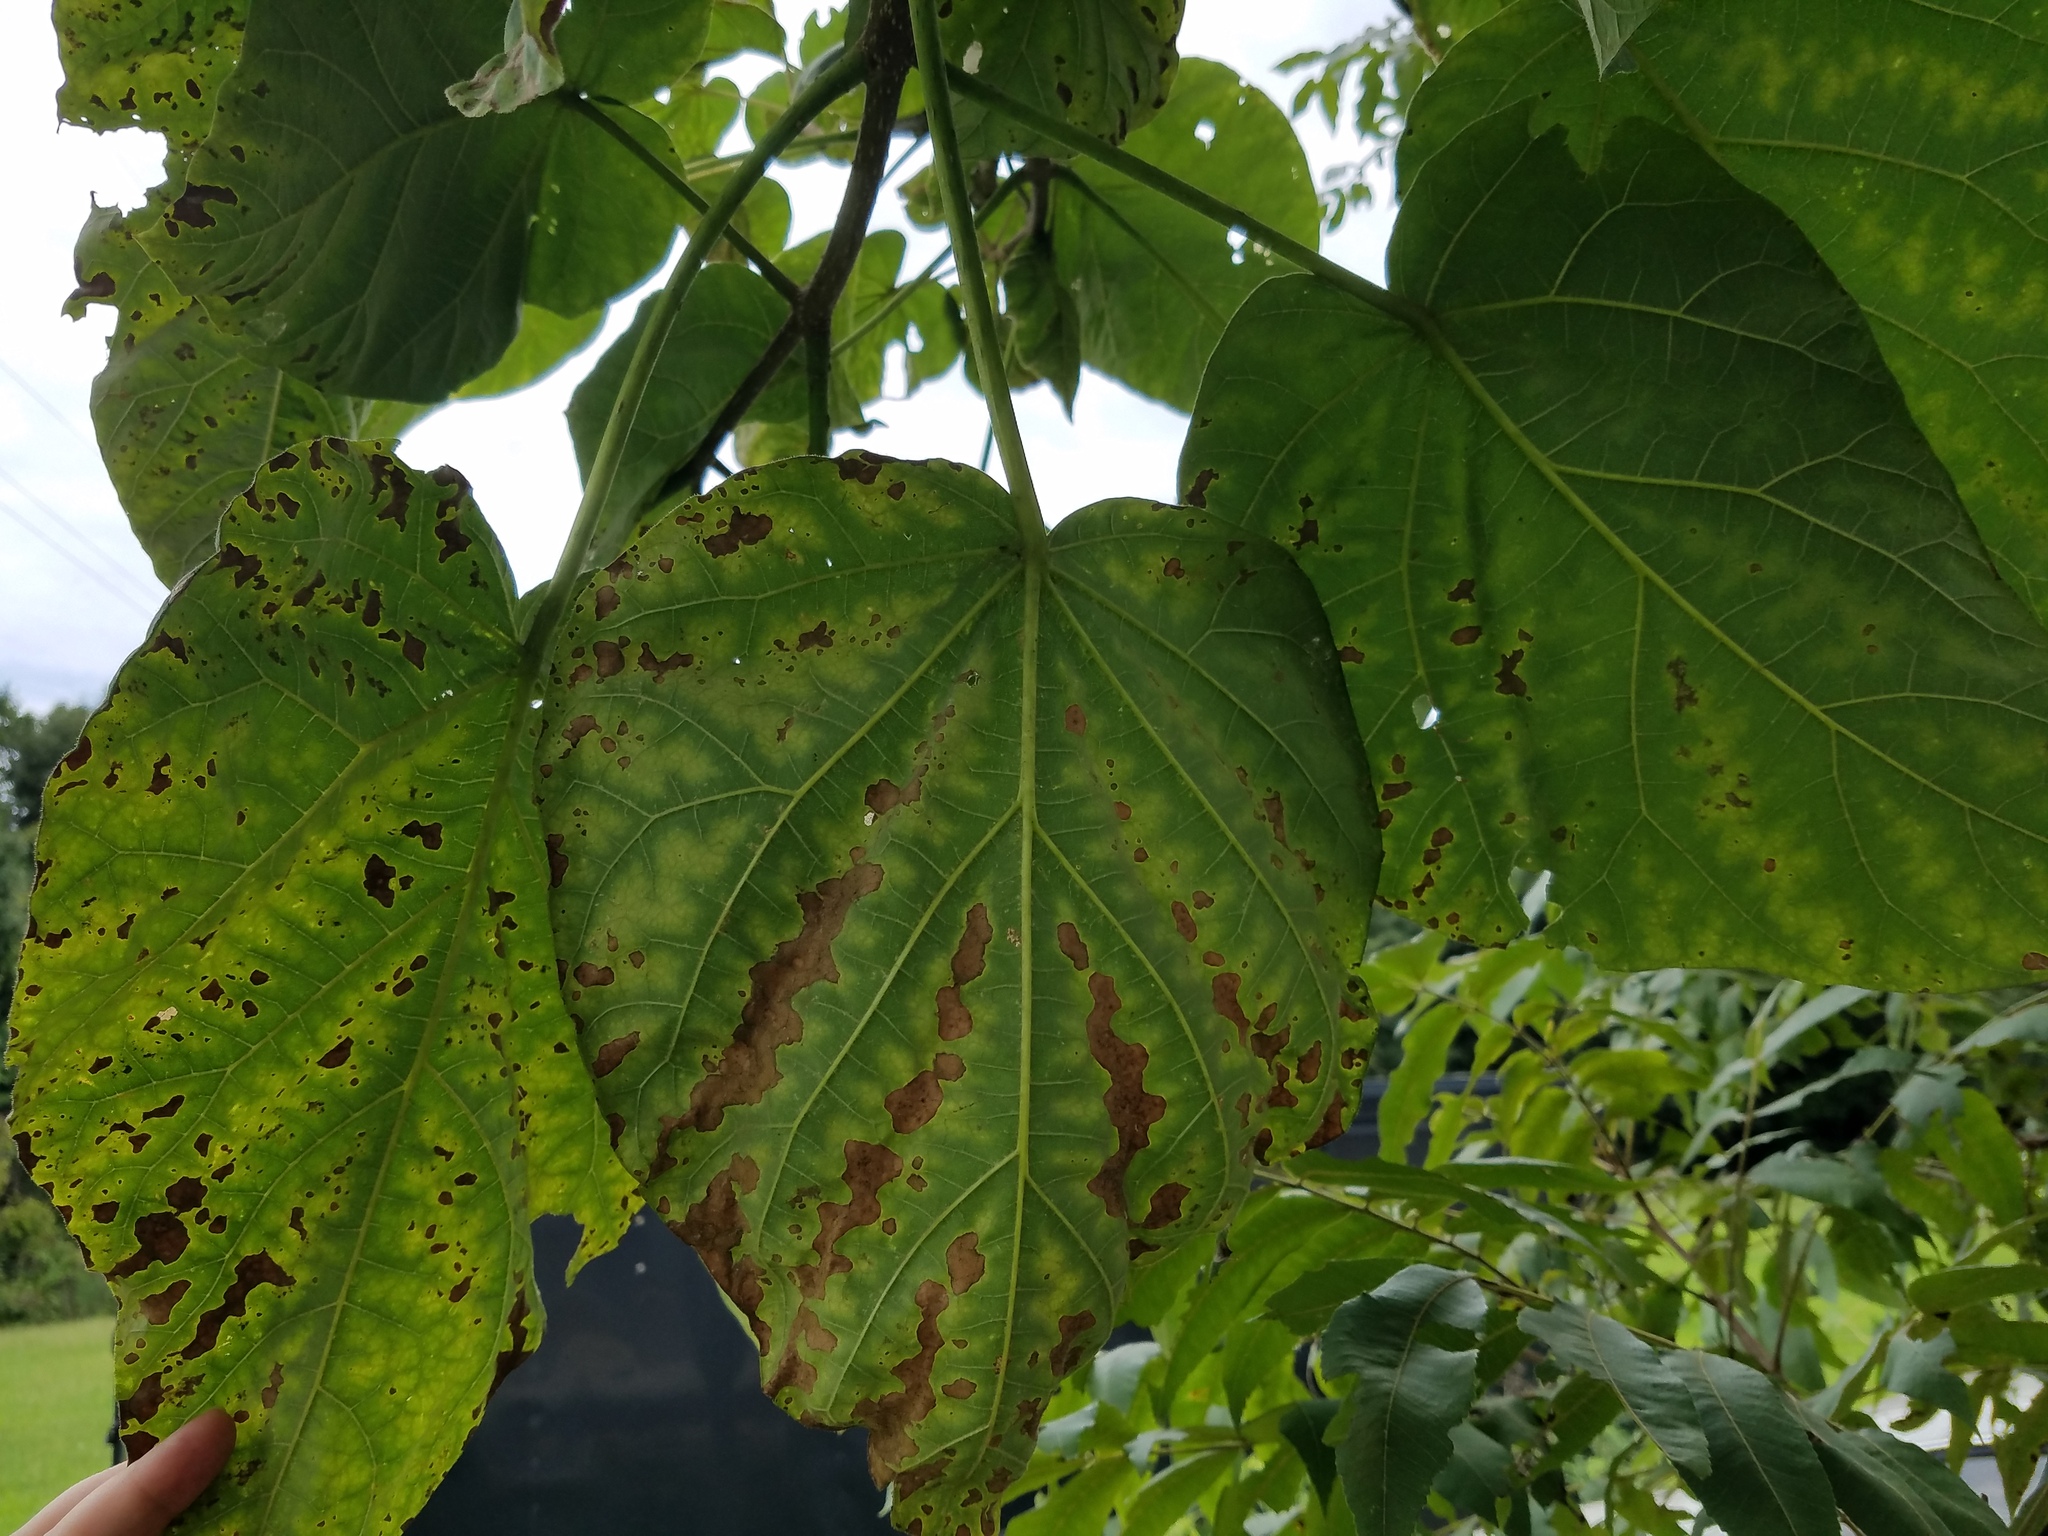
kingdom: Plantae
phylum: Tracheophyta
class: Magnoliopsida
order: Lamiales
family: Paulowniaceae
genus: Paulownia
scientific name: Paulownia tomentosa
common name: Foxglove-tree
